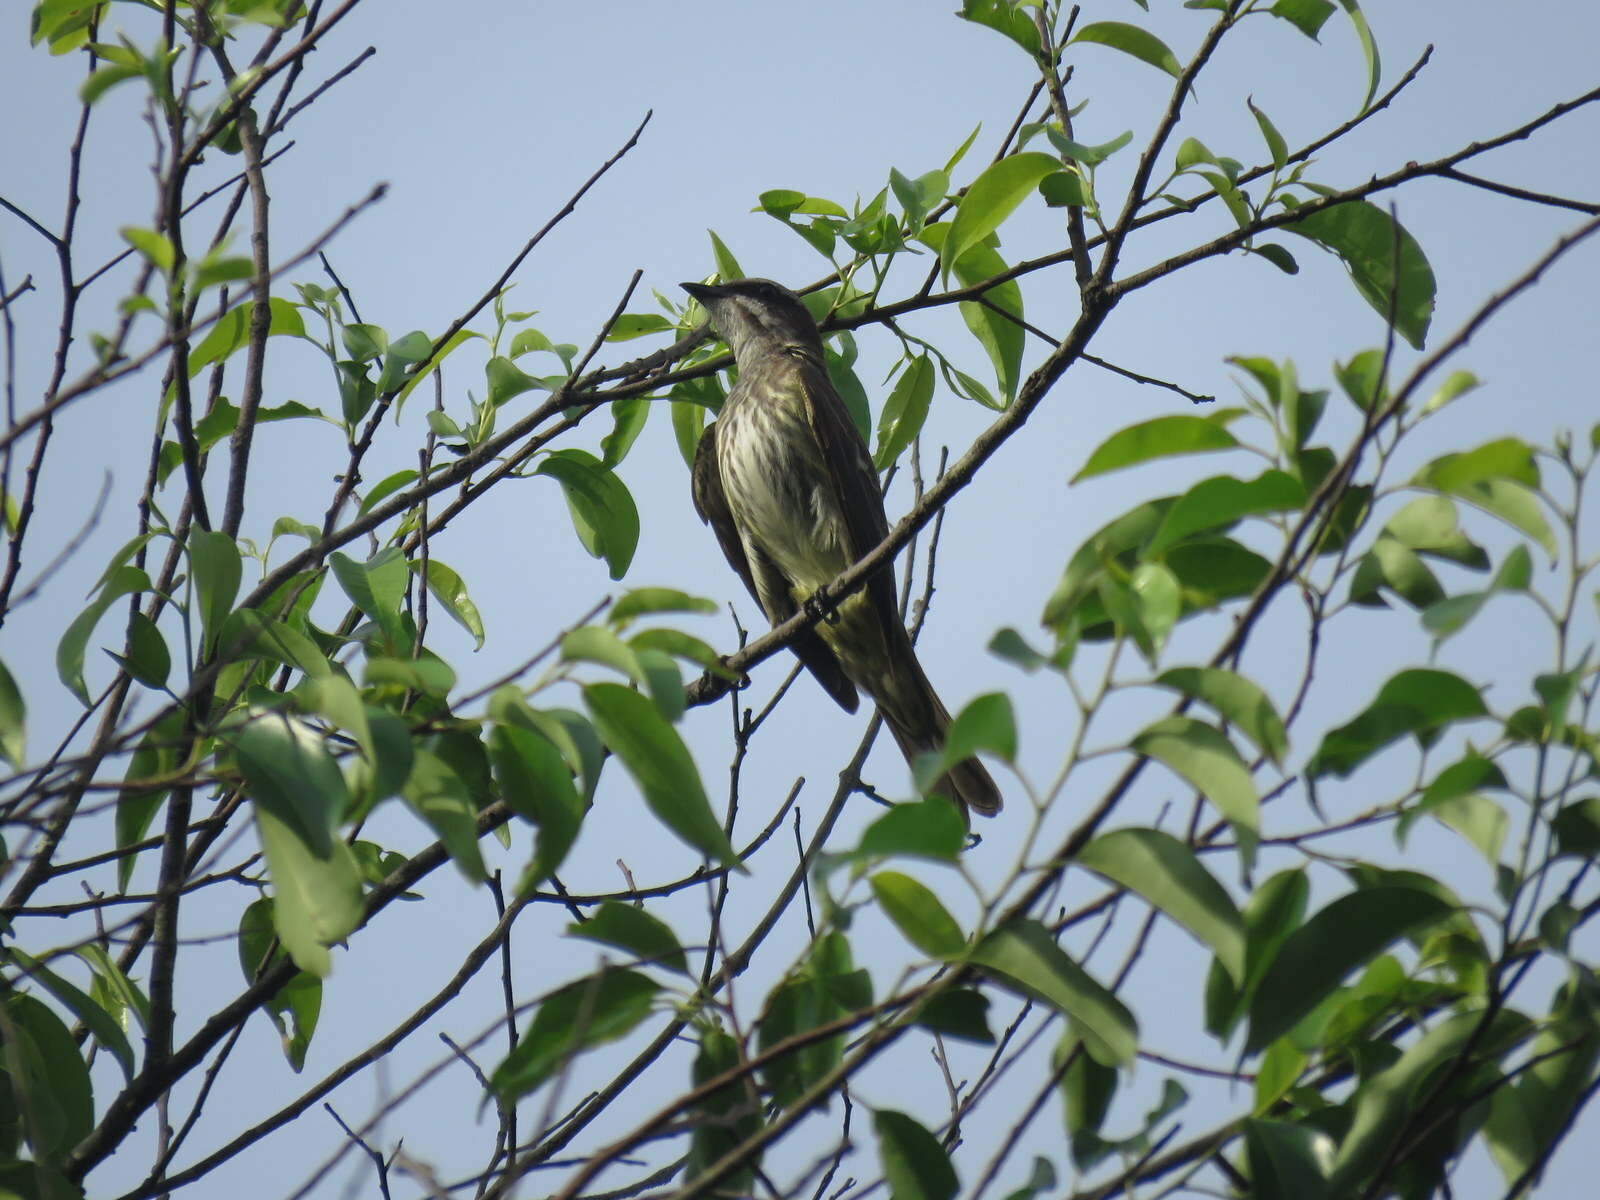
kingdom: Animalia
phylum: Chordata
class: Aves
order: Passeriformes
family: Tyrannidae
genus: Legatus
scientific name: Legatus leucophaius
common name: Piratic flycatcher
